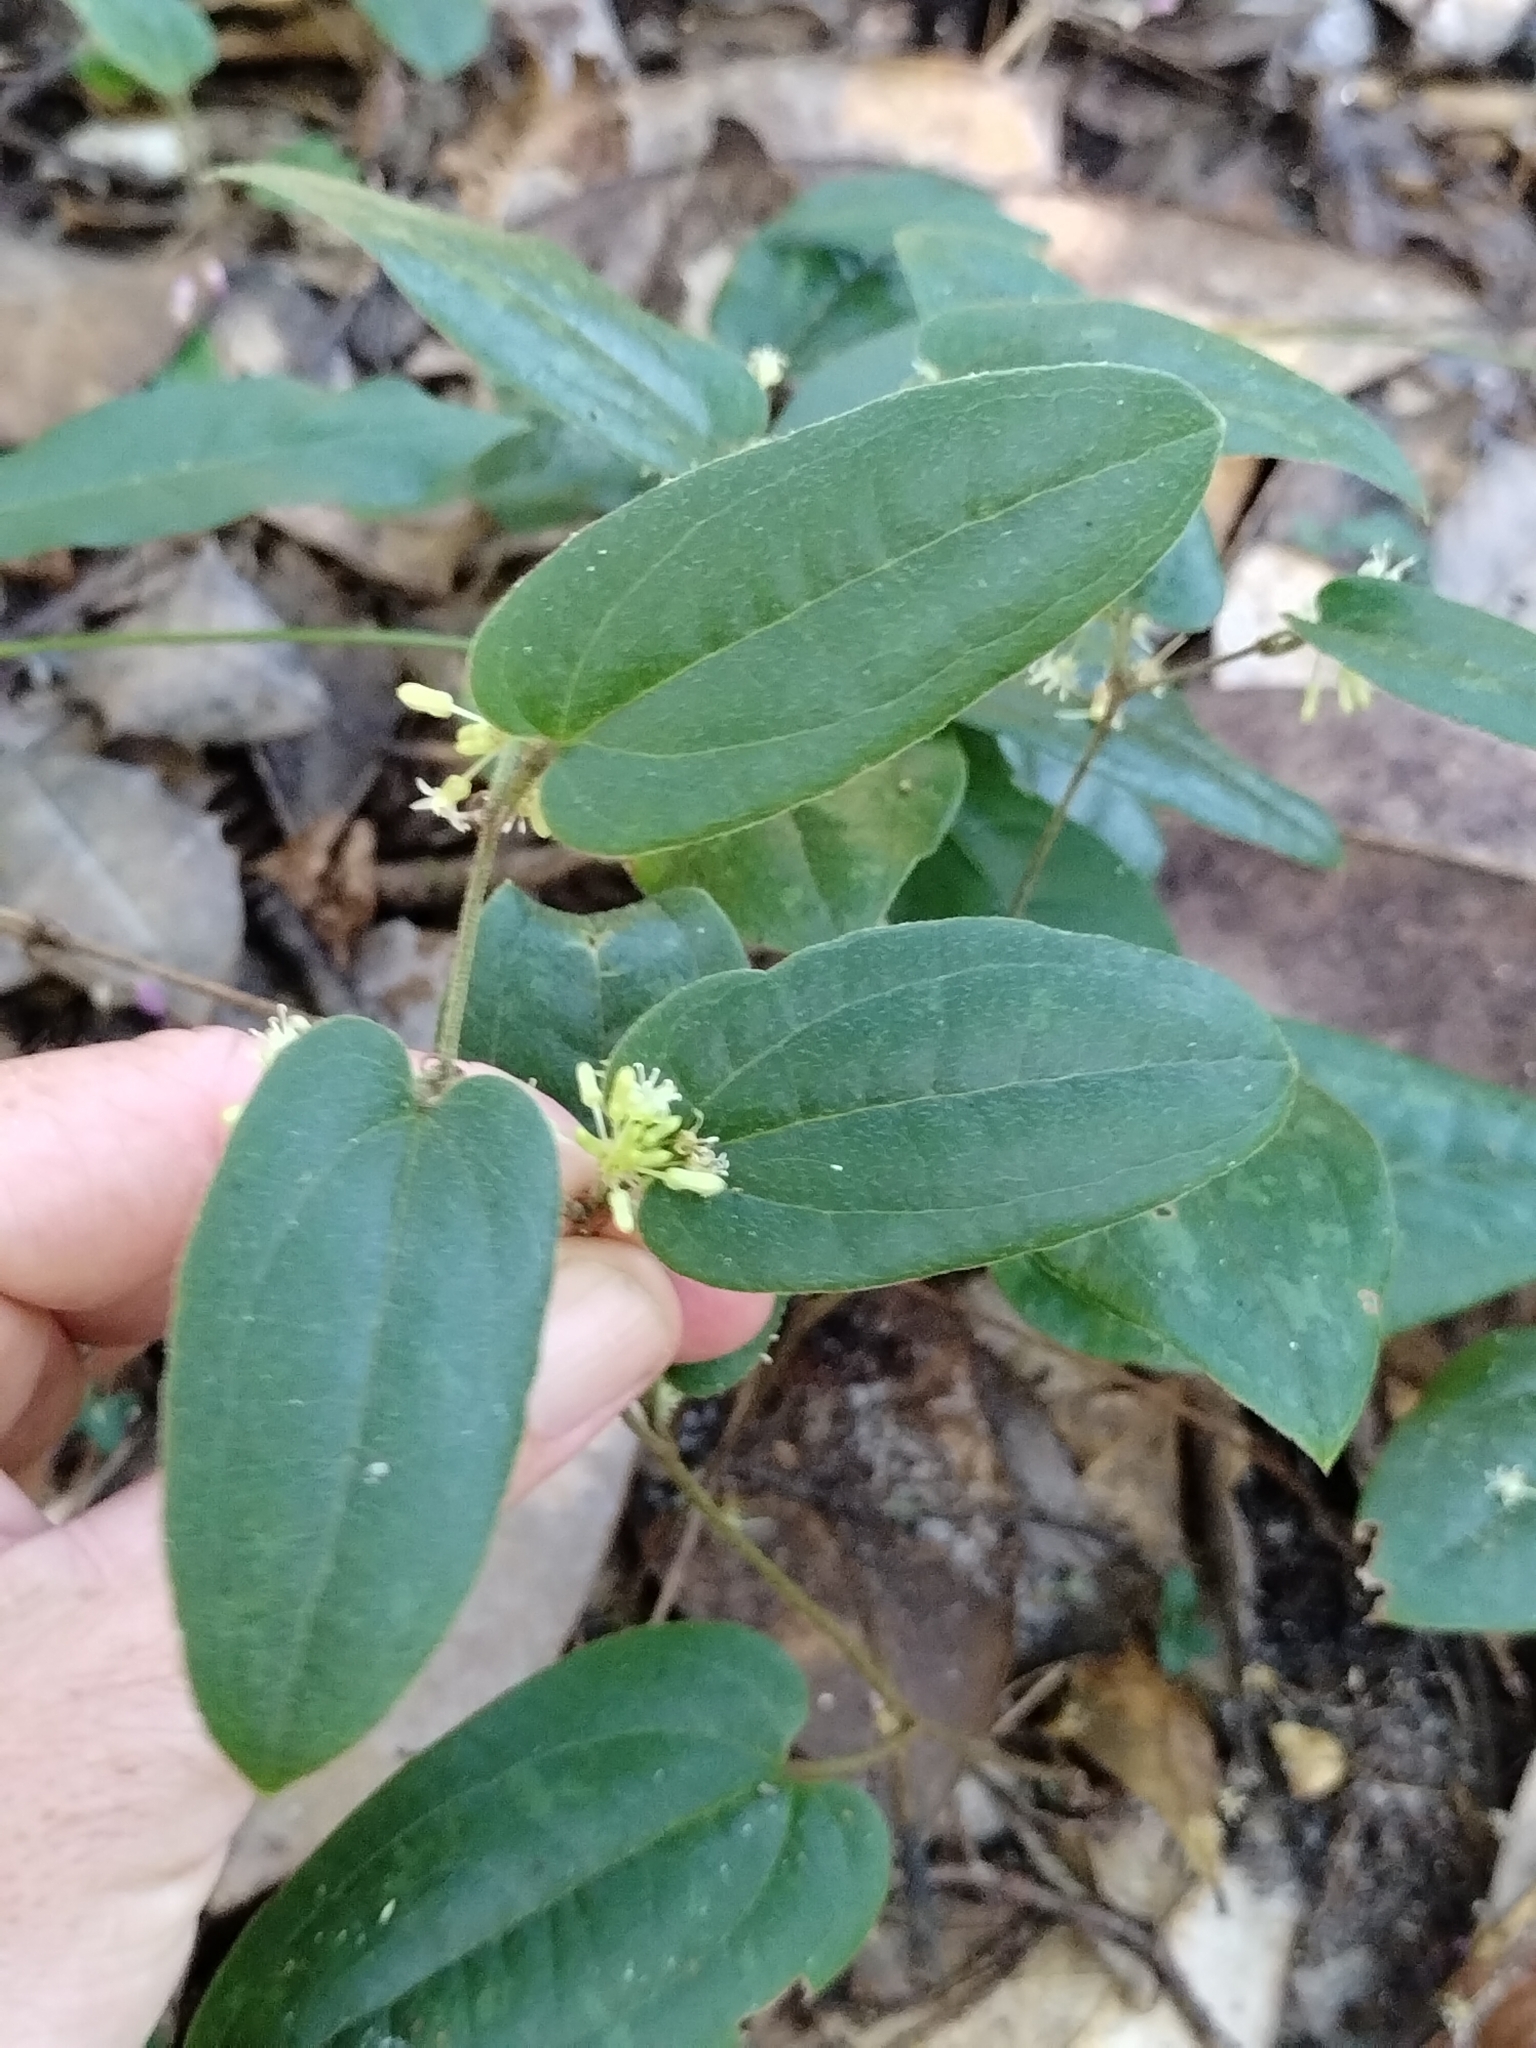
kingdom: Plantae
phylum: Tracheophyta
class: Liliopsida
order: Liliales
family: Smilacaceae
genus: Smilax
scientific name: Smilax pumila
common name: Sarsaparilla-vine
